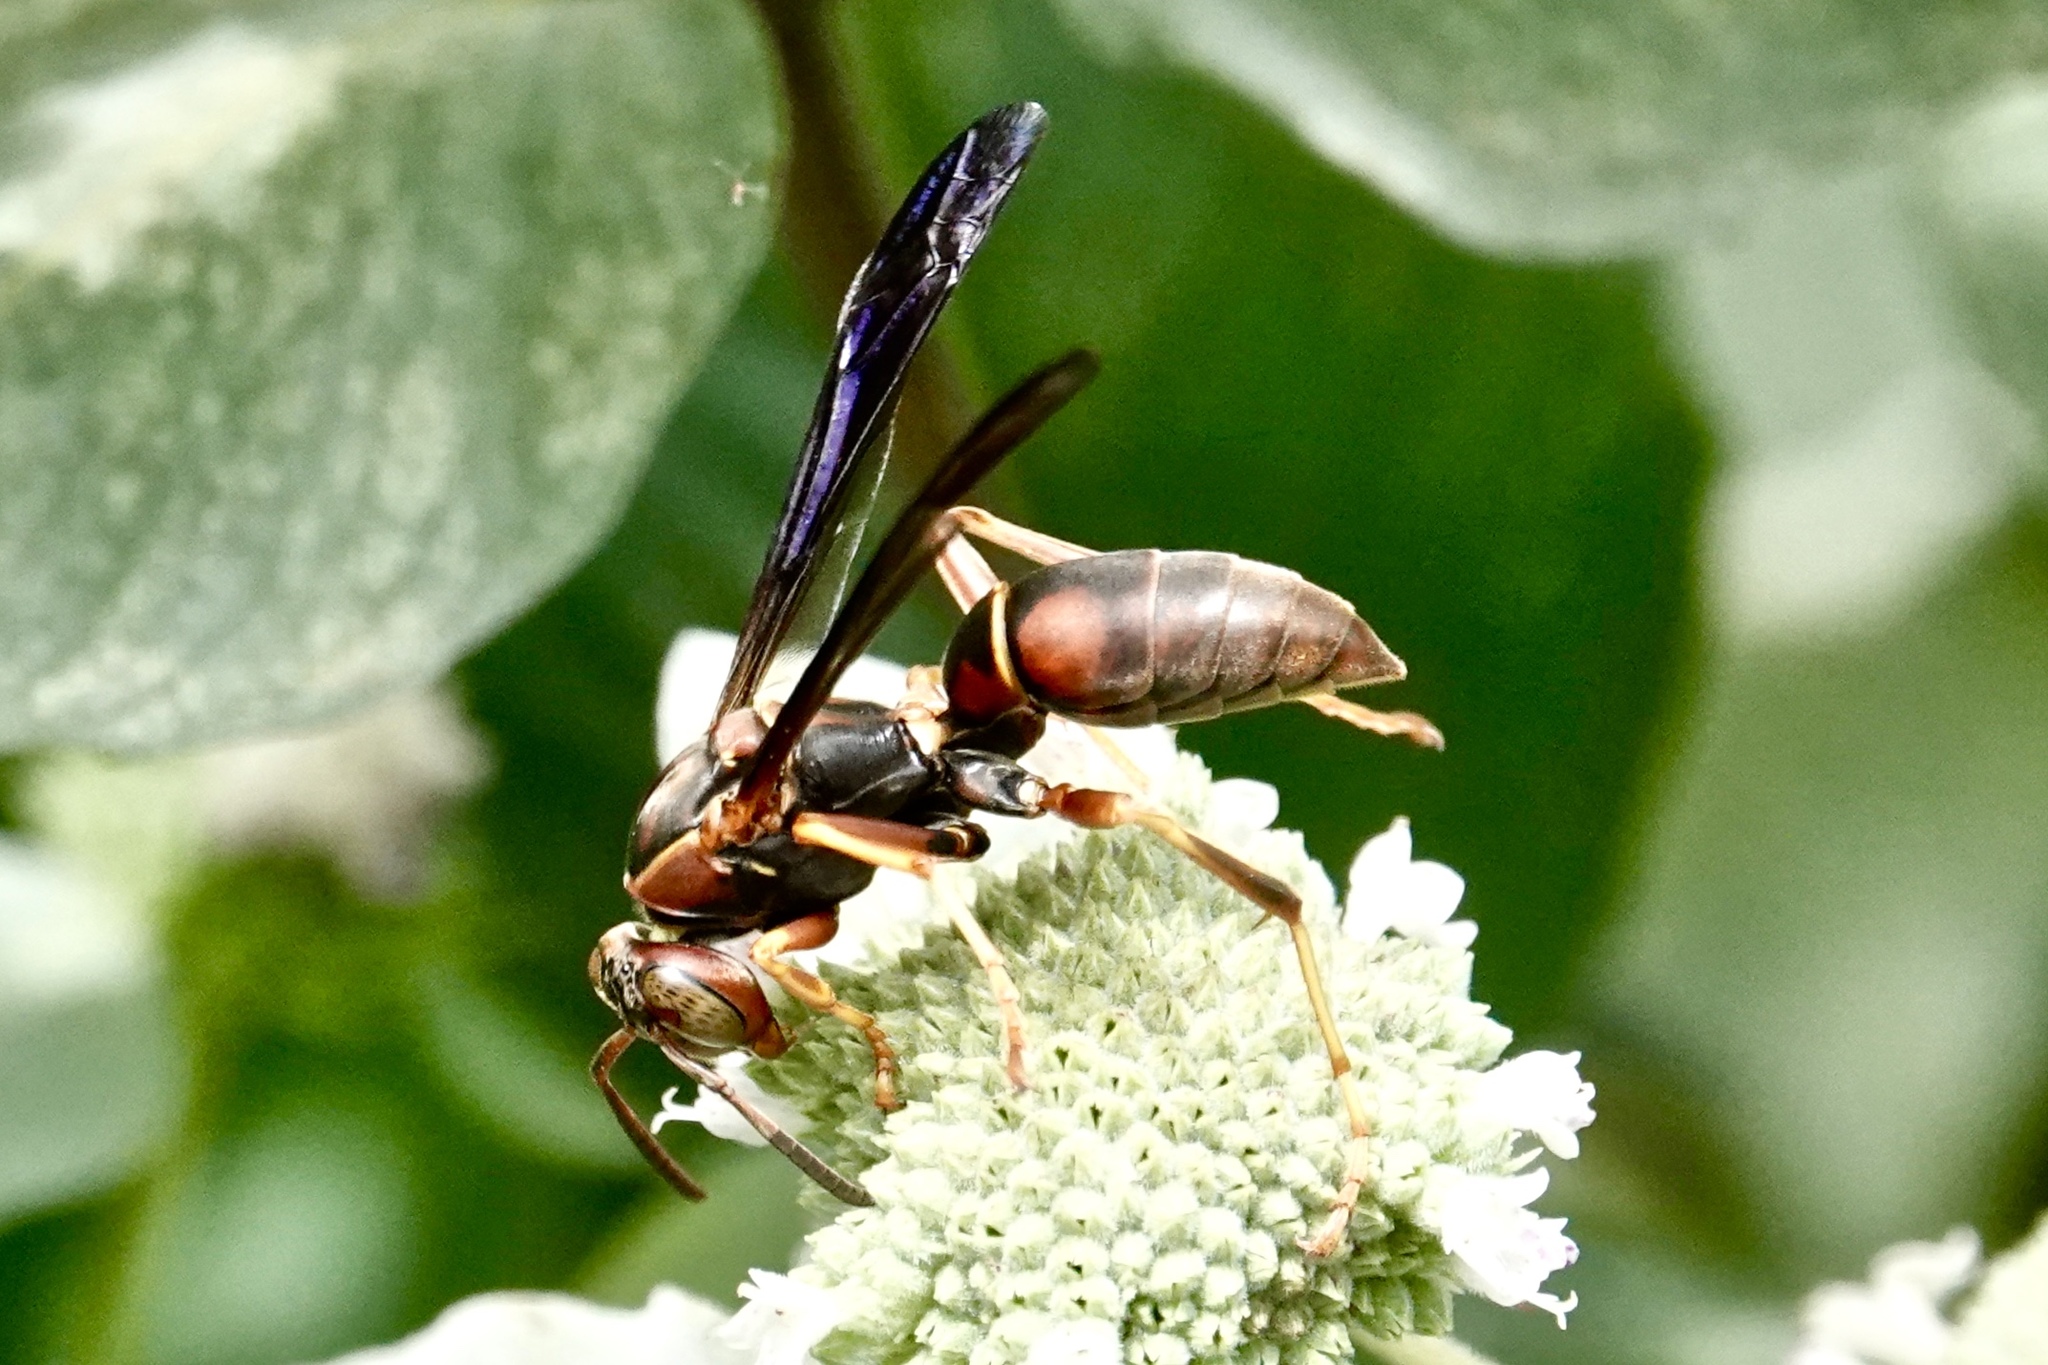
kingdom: Animalia
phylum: Arthropoda
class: Insecta
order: Hymenoptera
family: Eumenidae
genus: Polistes
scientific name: Polistes fuscatus
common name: Dark paper wasp
